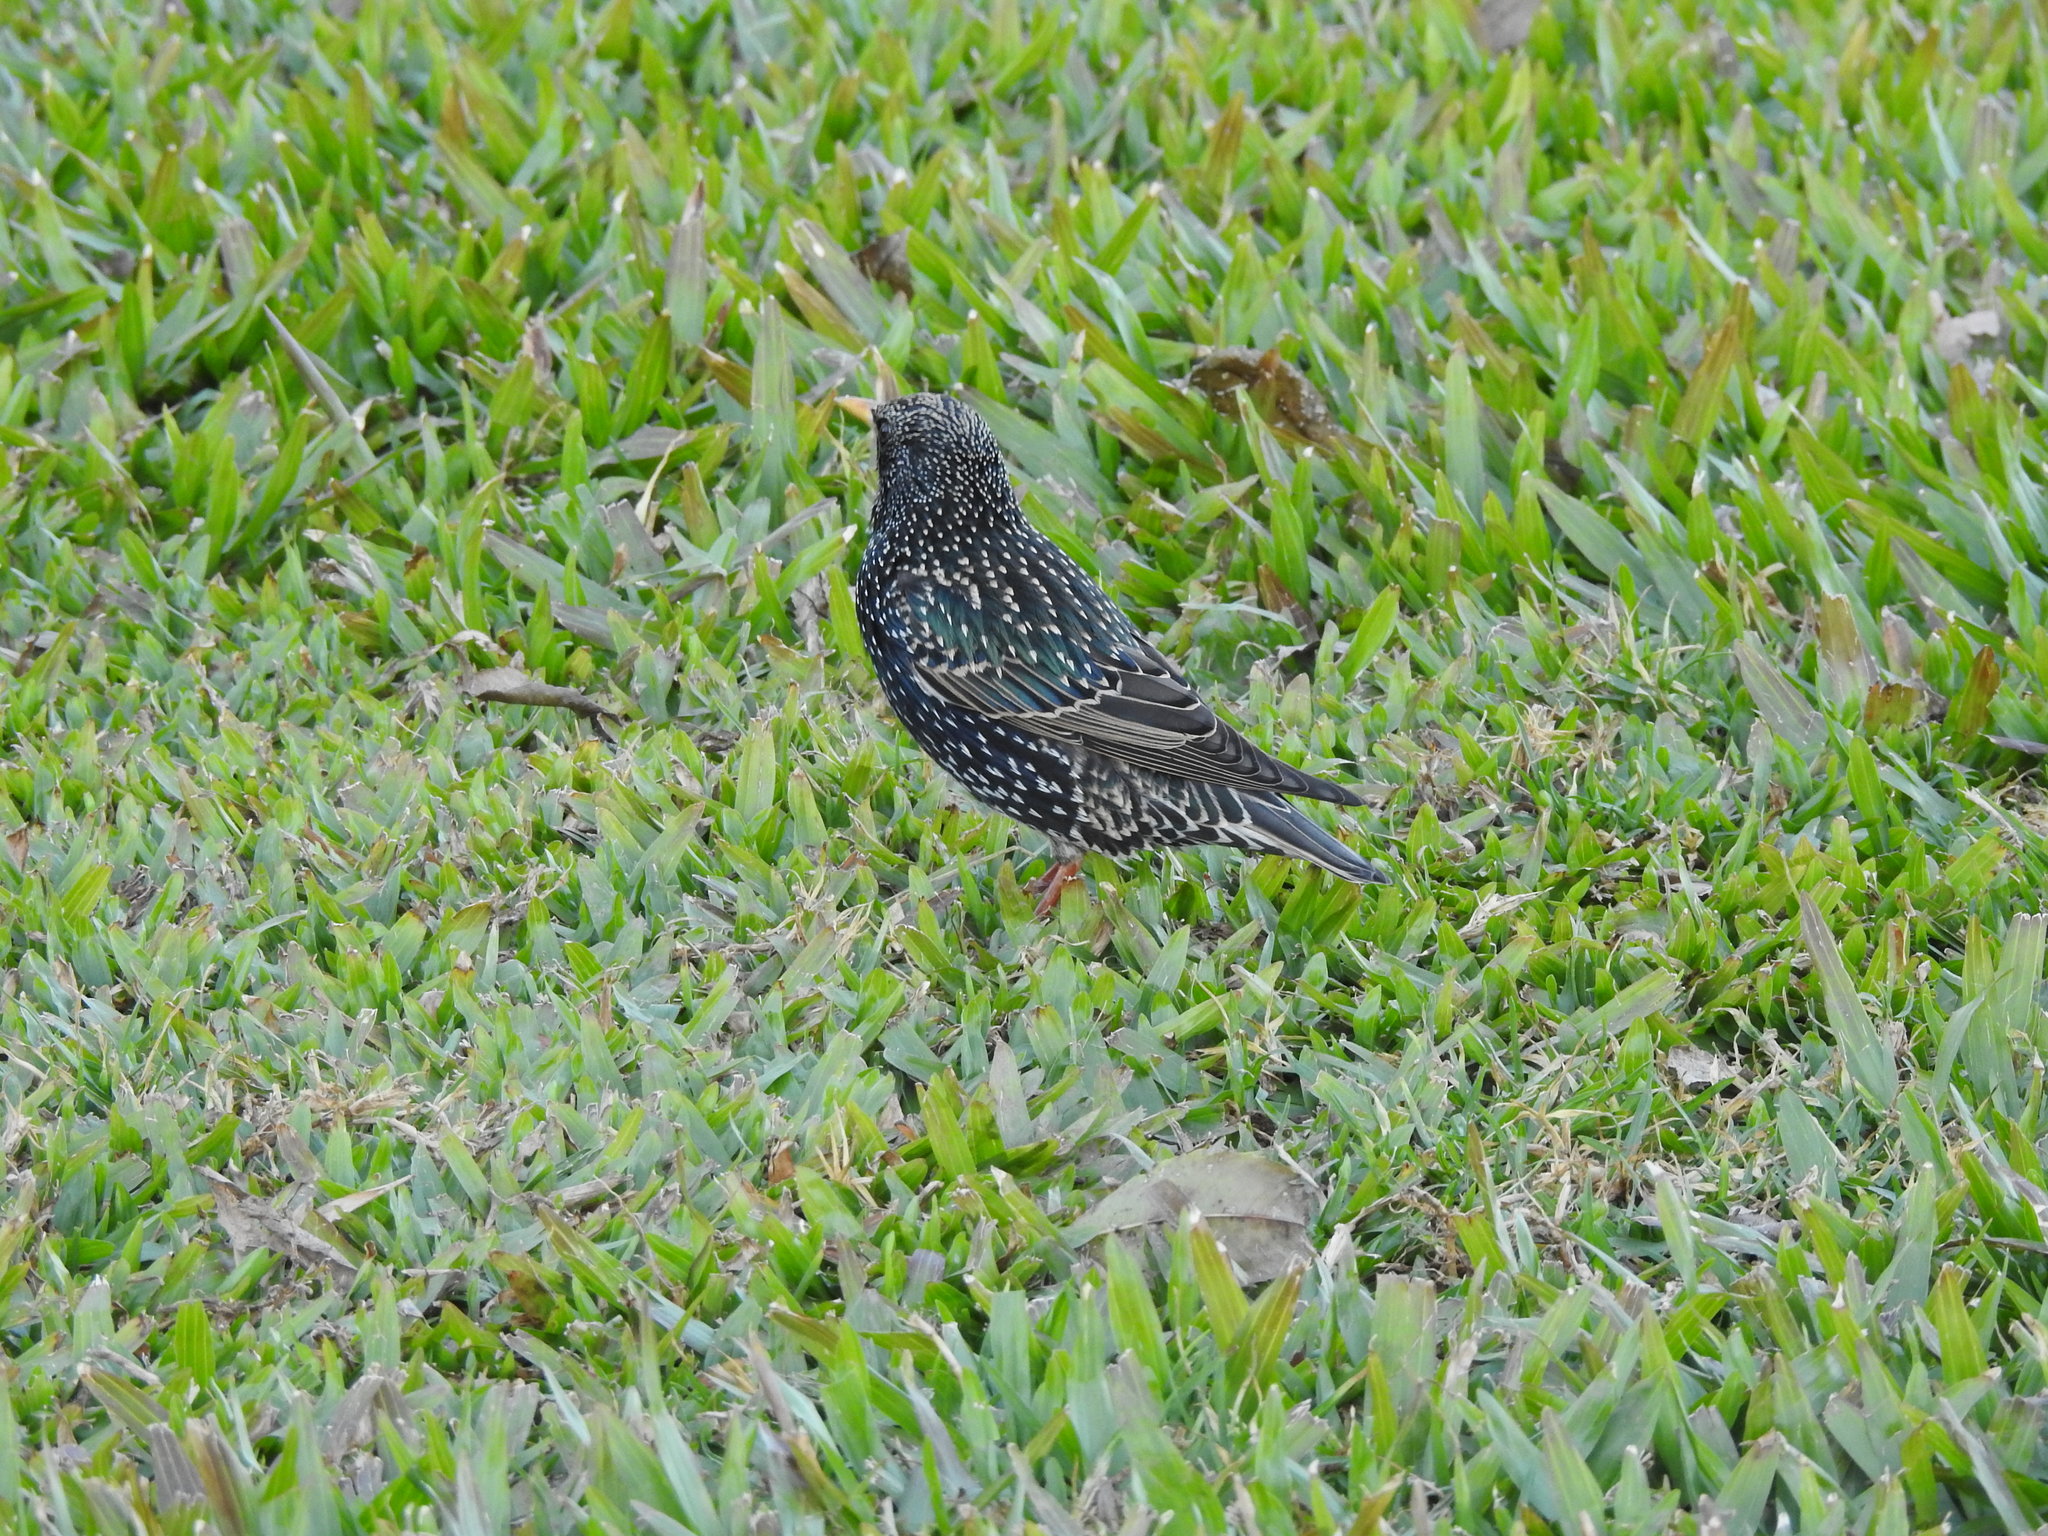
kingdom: Animalia
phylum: Chordata
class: Aves
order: Passeriformes
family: Sturnidae
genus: Sturnus
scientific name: Sturnus vulgaris
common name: Common starling
